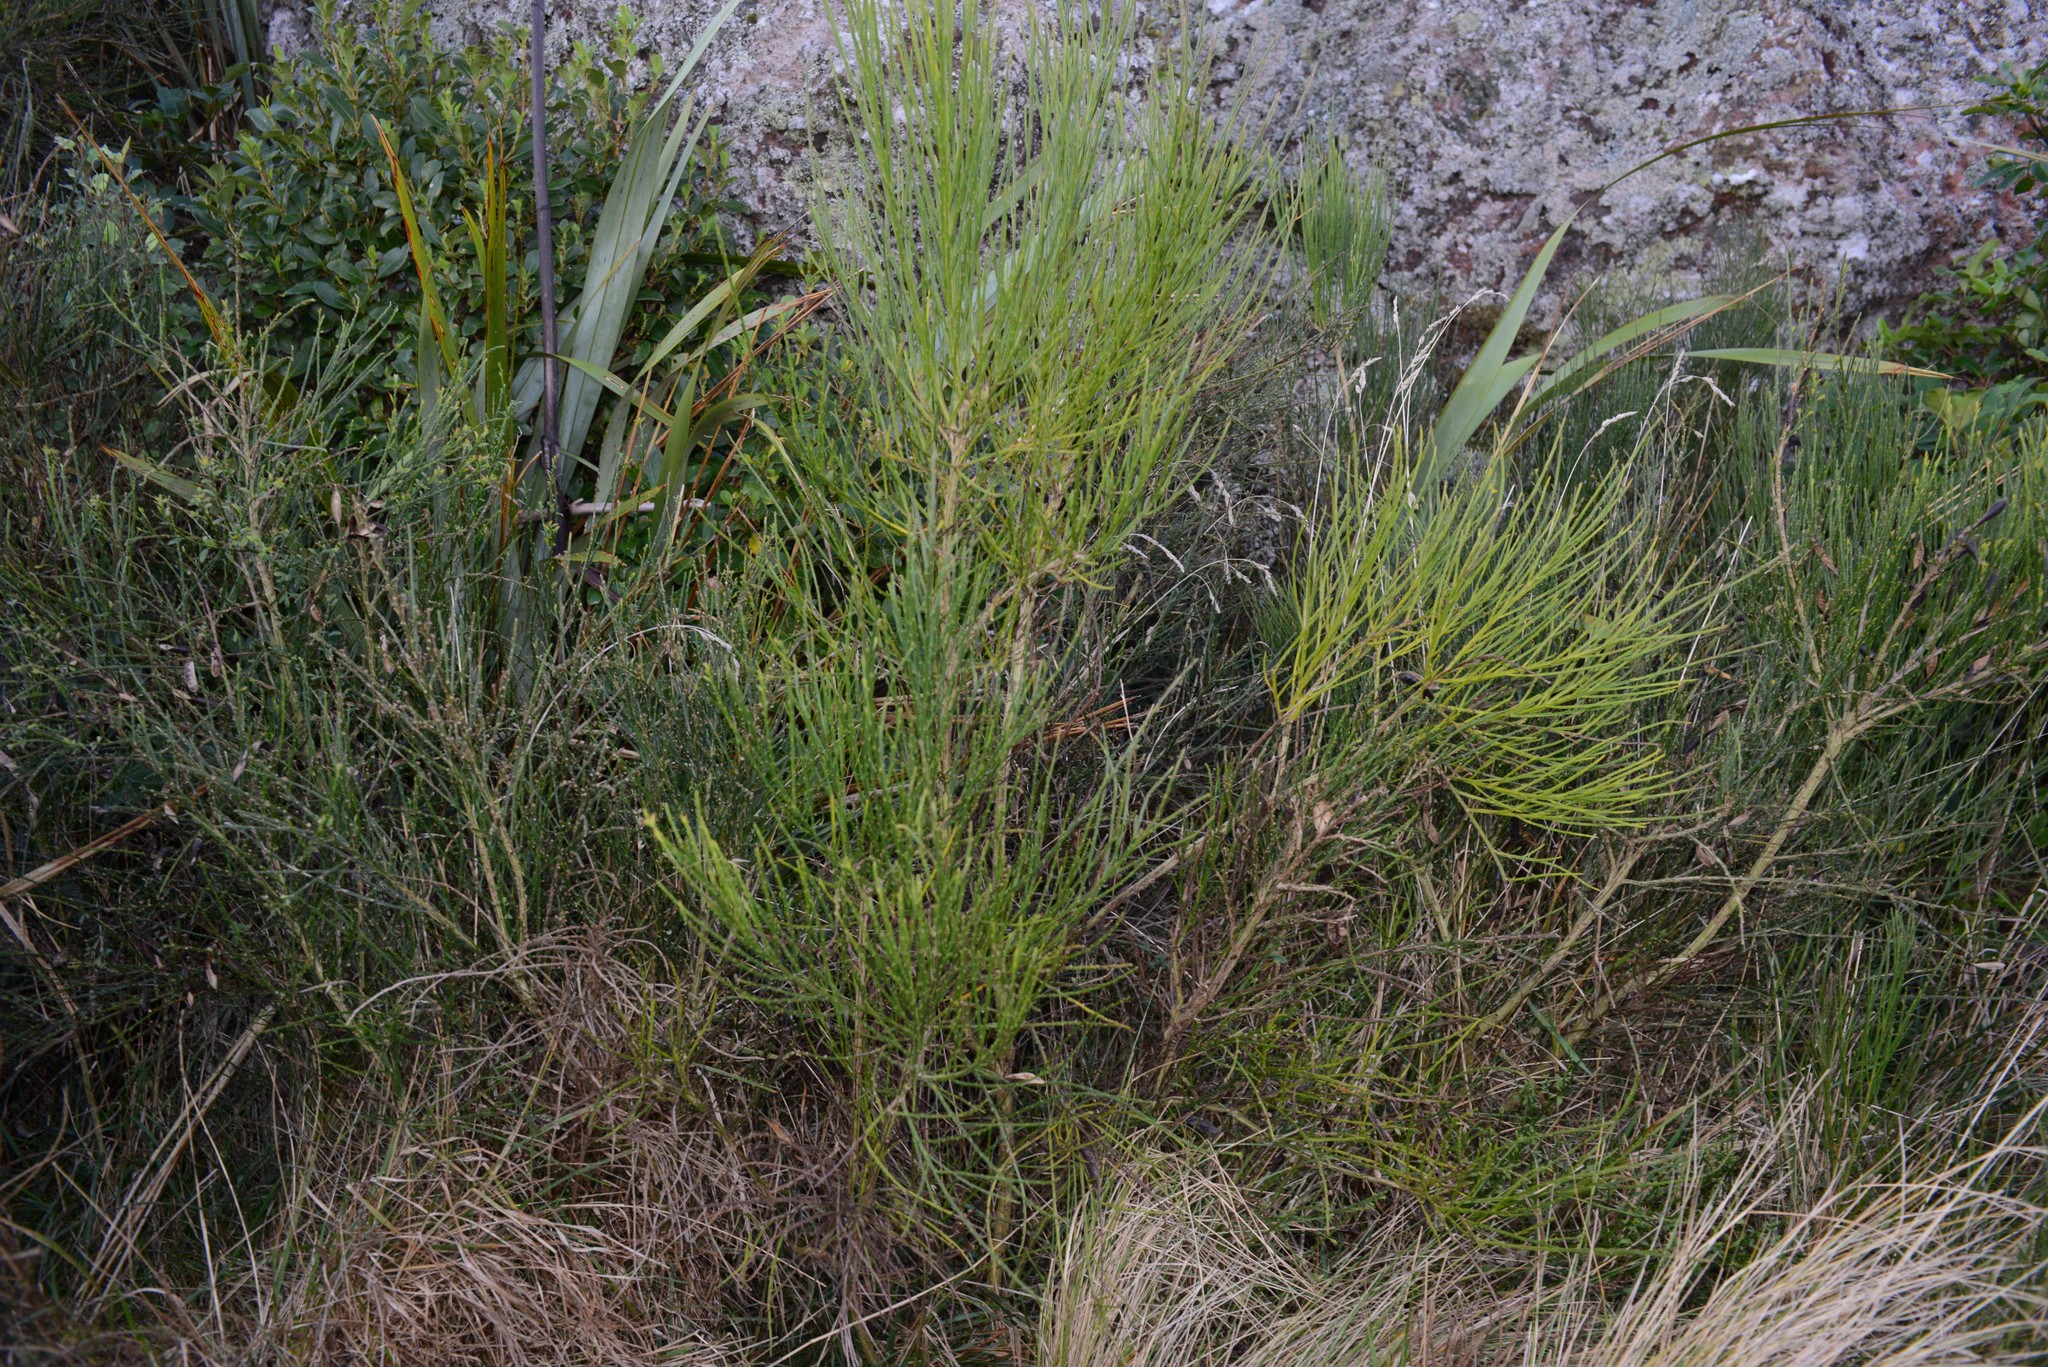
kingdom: Plantae
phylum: Tracheophyta
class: Magnoliopsida
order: Fabales
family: Fabaceae
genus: Cytisus
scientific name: Cytisus scoparius
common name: Scotch broom
